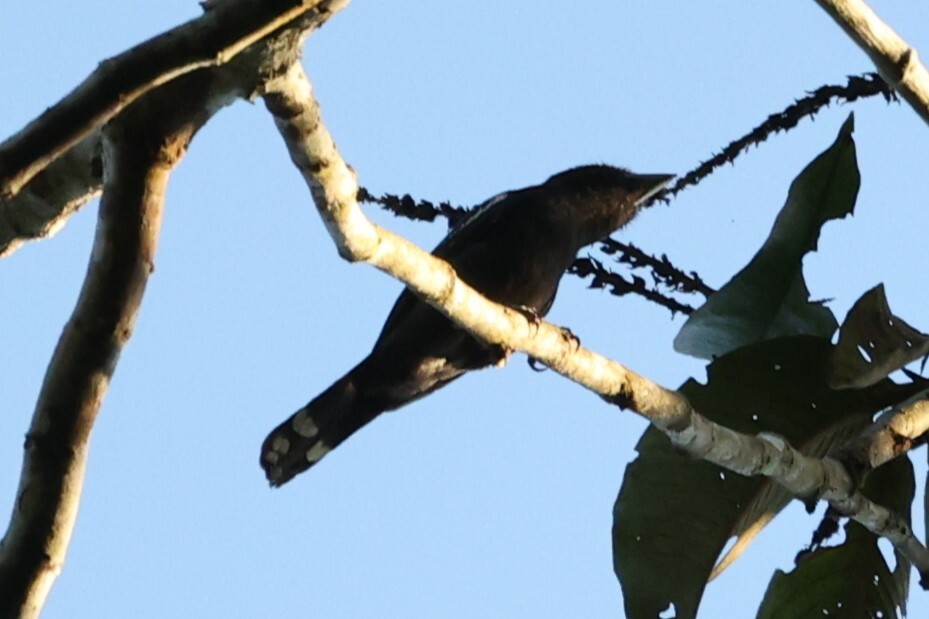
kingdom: Animalia
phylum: Chordata
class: Aves
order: Passeriformes
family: Cotingidae
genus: Pachyramphus
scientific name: Pachyramphus polychopterus
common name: White-winged becard
